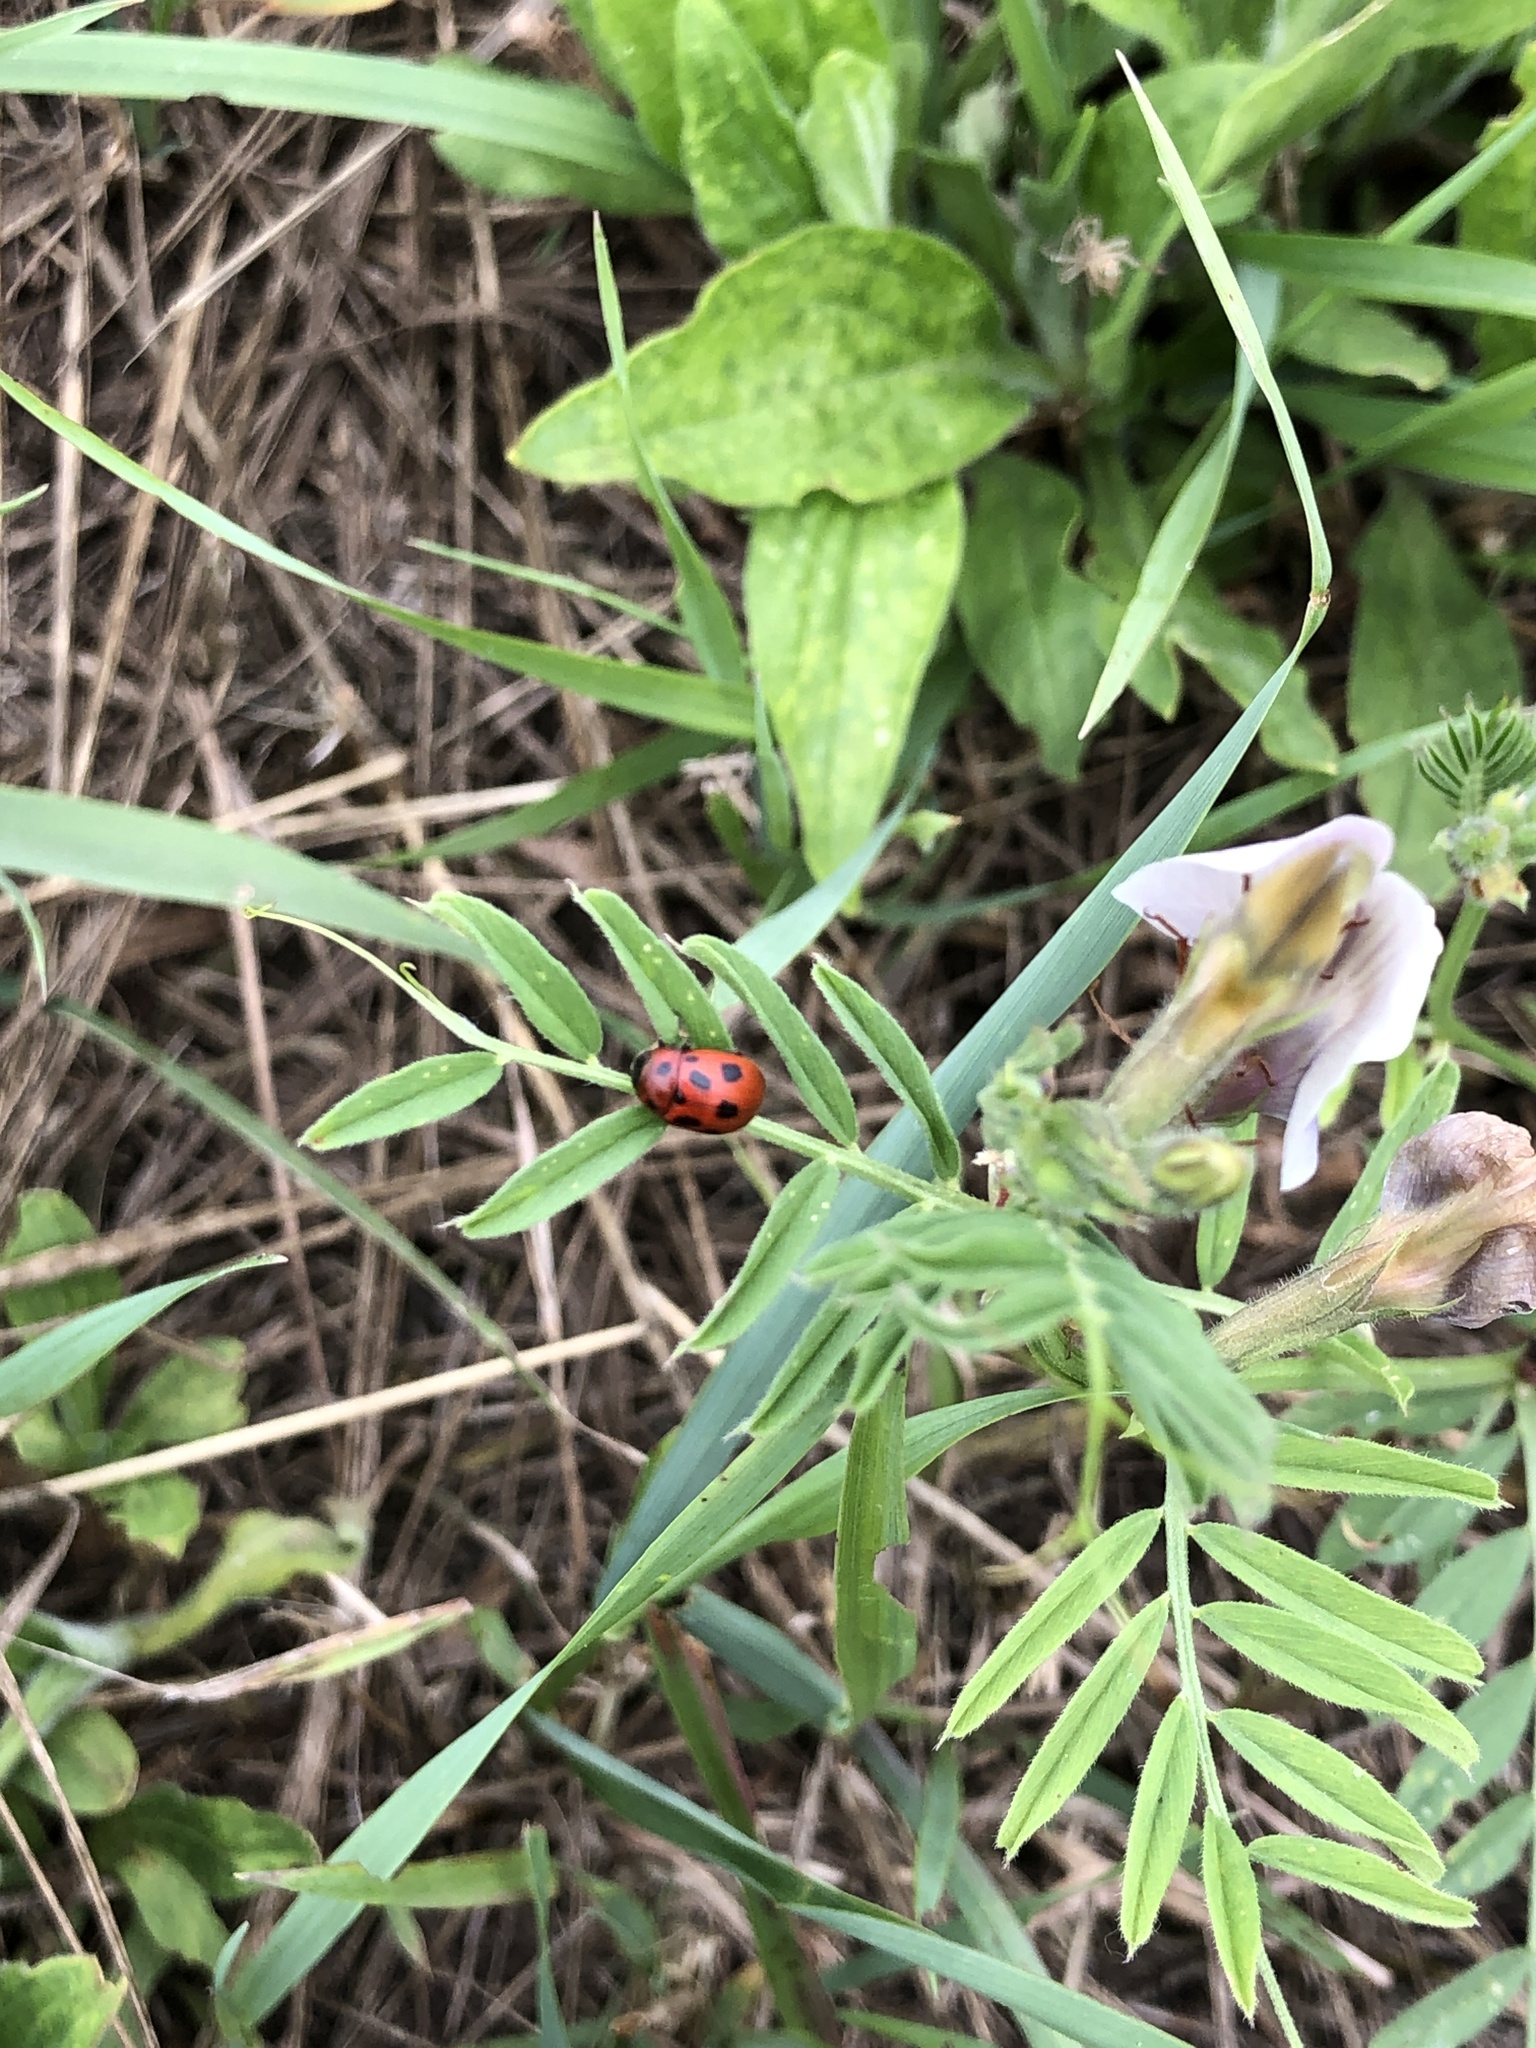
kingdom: Animalia
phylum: Arthropoda
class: Insecta
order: Coleoptera
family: Chrysomelidae
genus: Gonioctena
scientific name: Gonioctena fornicata
